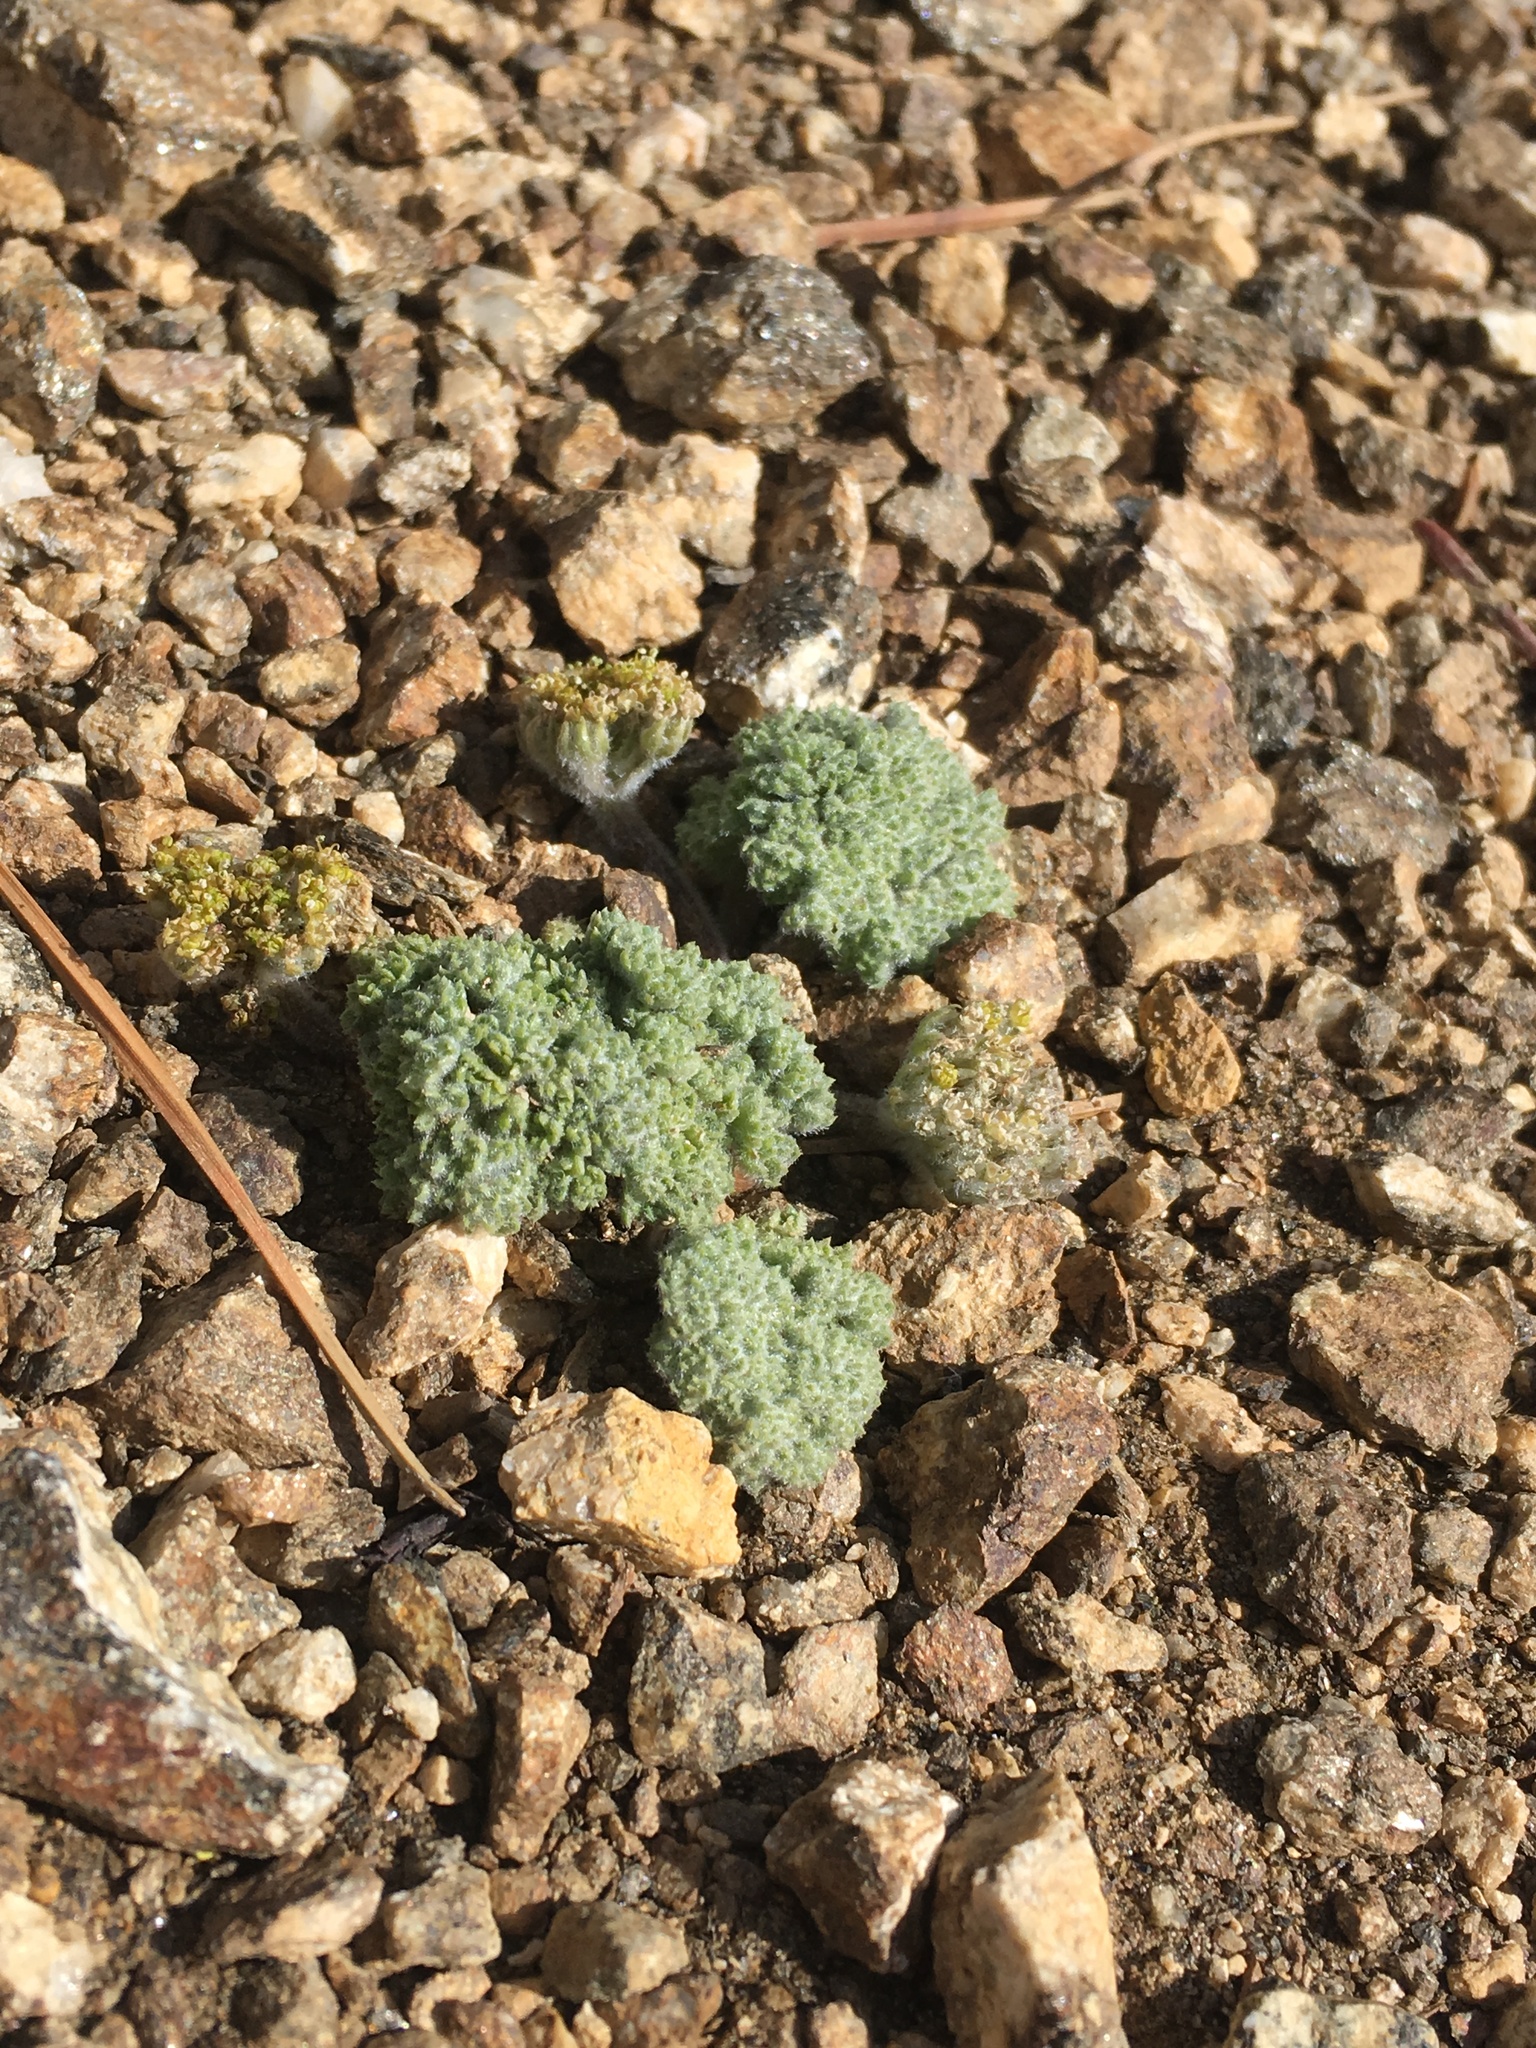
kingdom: Plantae
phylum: Tracheophyta
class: Magnoliopsida
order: Apiales
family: Apiaceae
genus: Oreonana
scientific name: Oreonana vestita
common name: Woolly mountain-parsley
